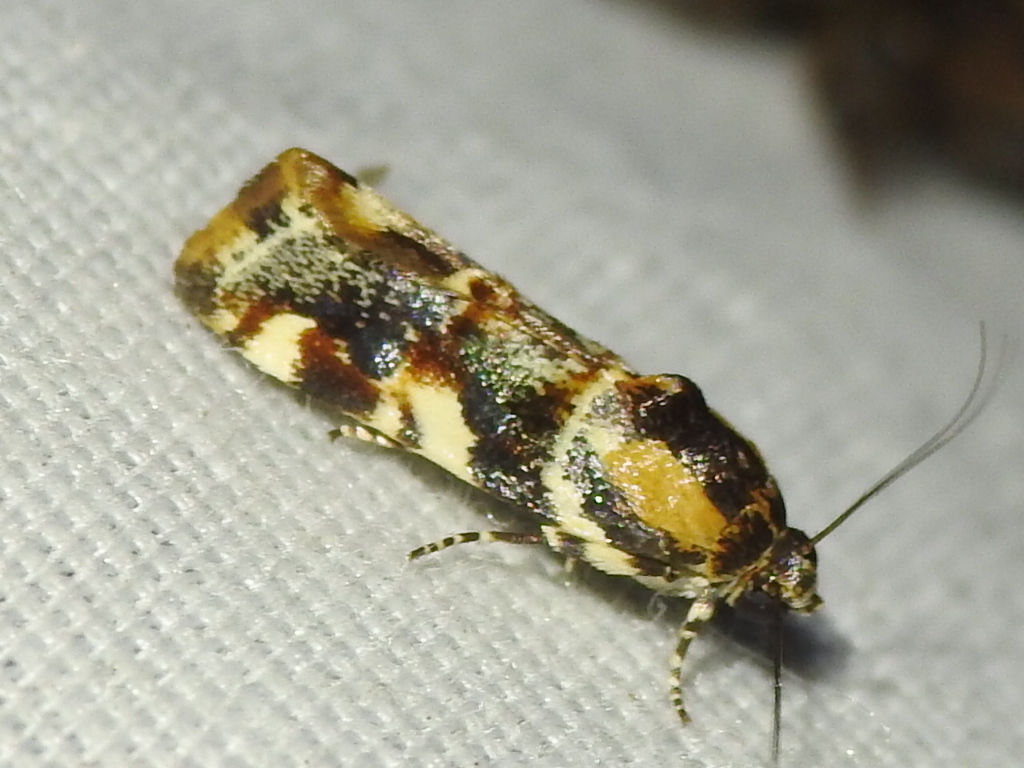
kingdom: Animalia
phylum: Arthropoda
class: Insecta
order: Lepidoptera
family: Noctuidae
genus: Spragueia
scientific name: Spragueia jaguaralis
